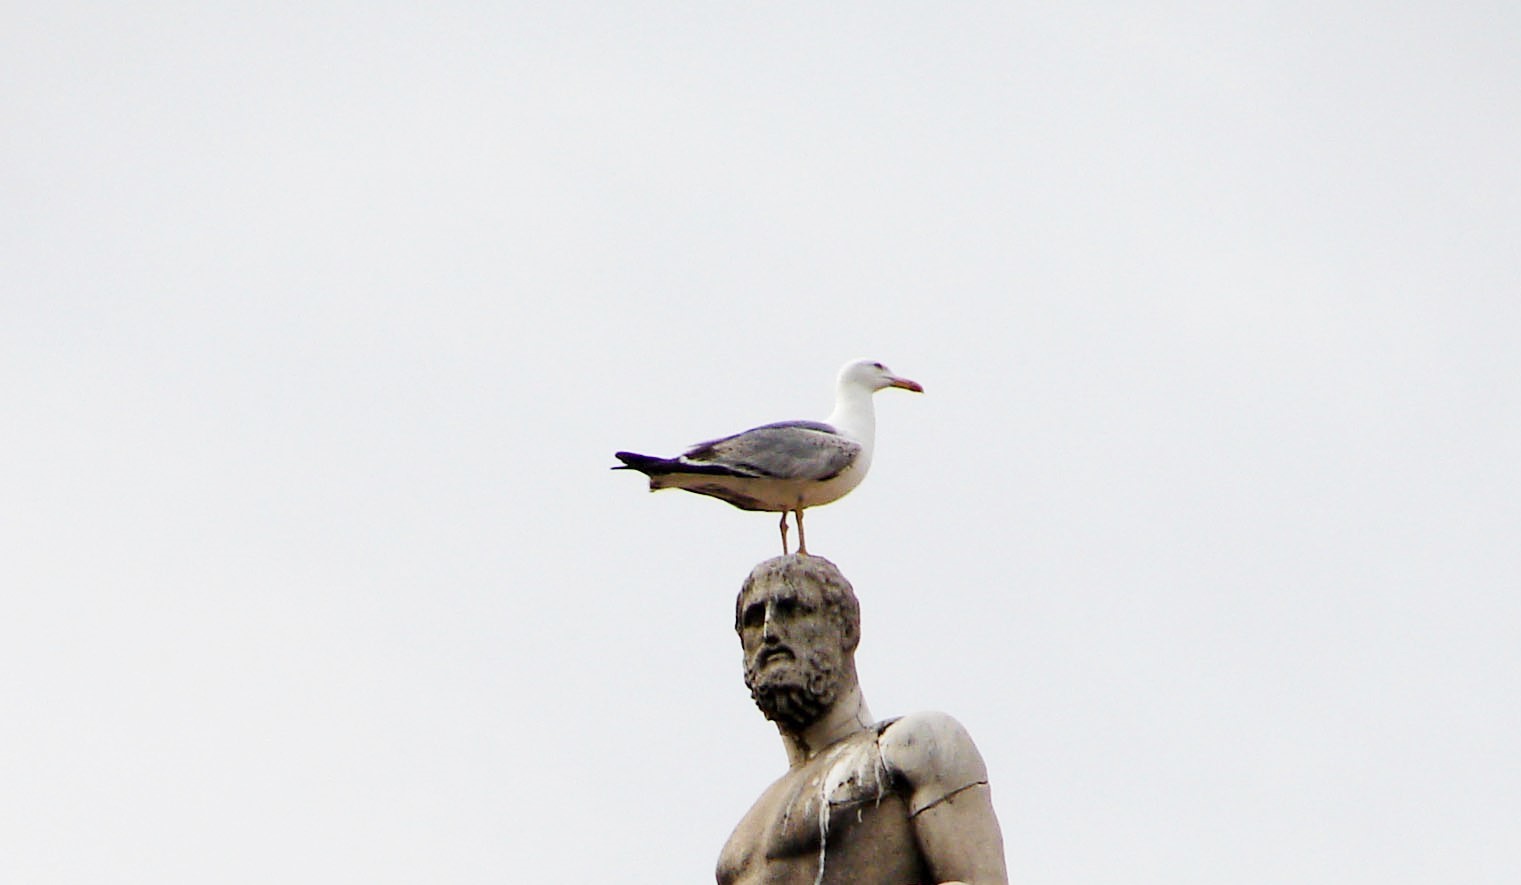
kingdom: Animalia
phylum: Chordata
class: Aves
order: Charadriiformes
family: Laridae
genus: Larus
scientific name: Larus michahellis
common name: Yellow-legged gull
